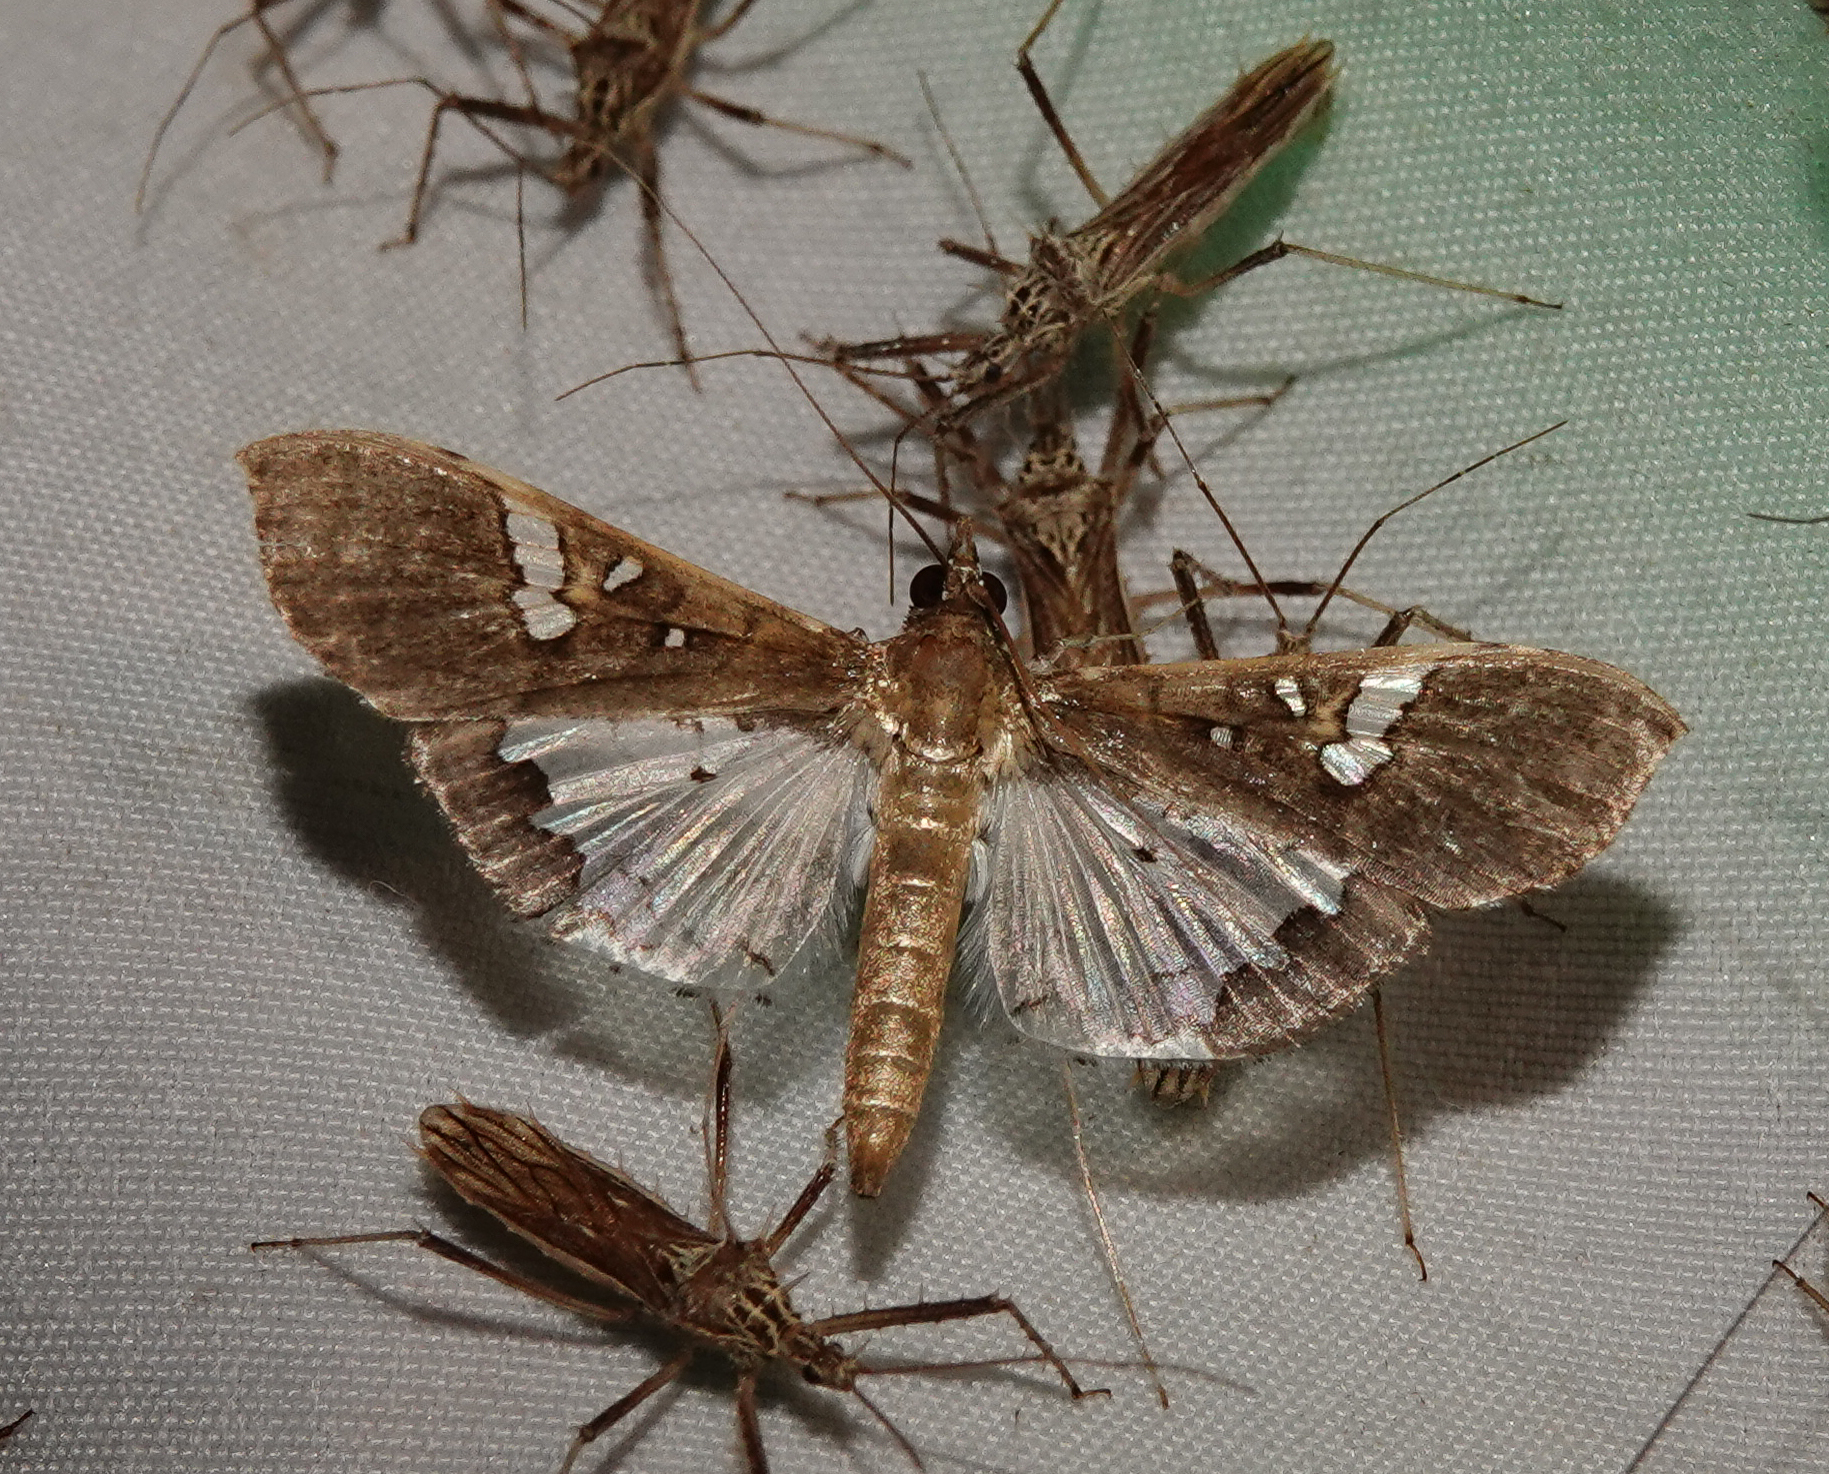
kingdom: Animalia
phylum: Arthropoda
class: Insecta
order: Lepidoptera
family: Crambidae
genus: Maruca
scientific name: Maruca vitrata
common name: Maruca pod borer
